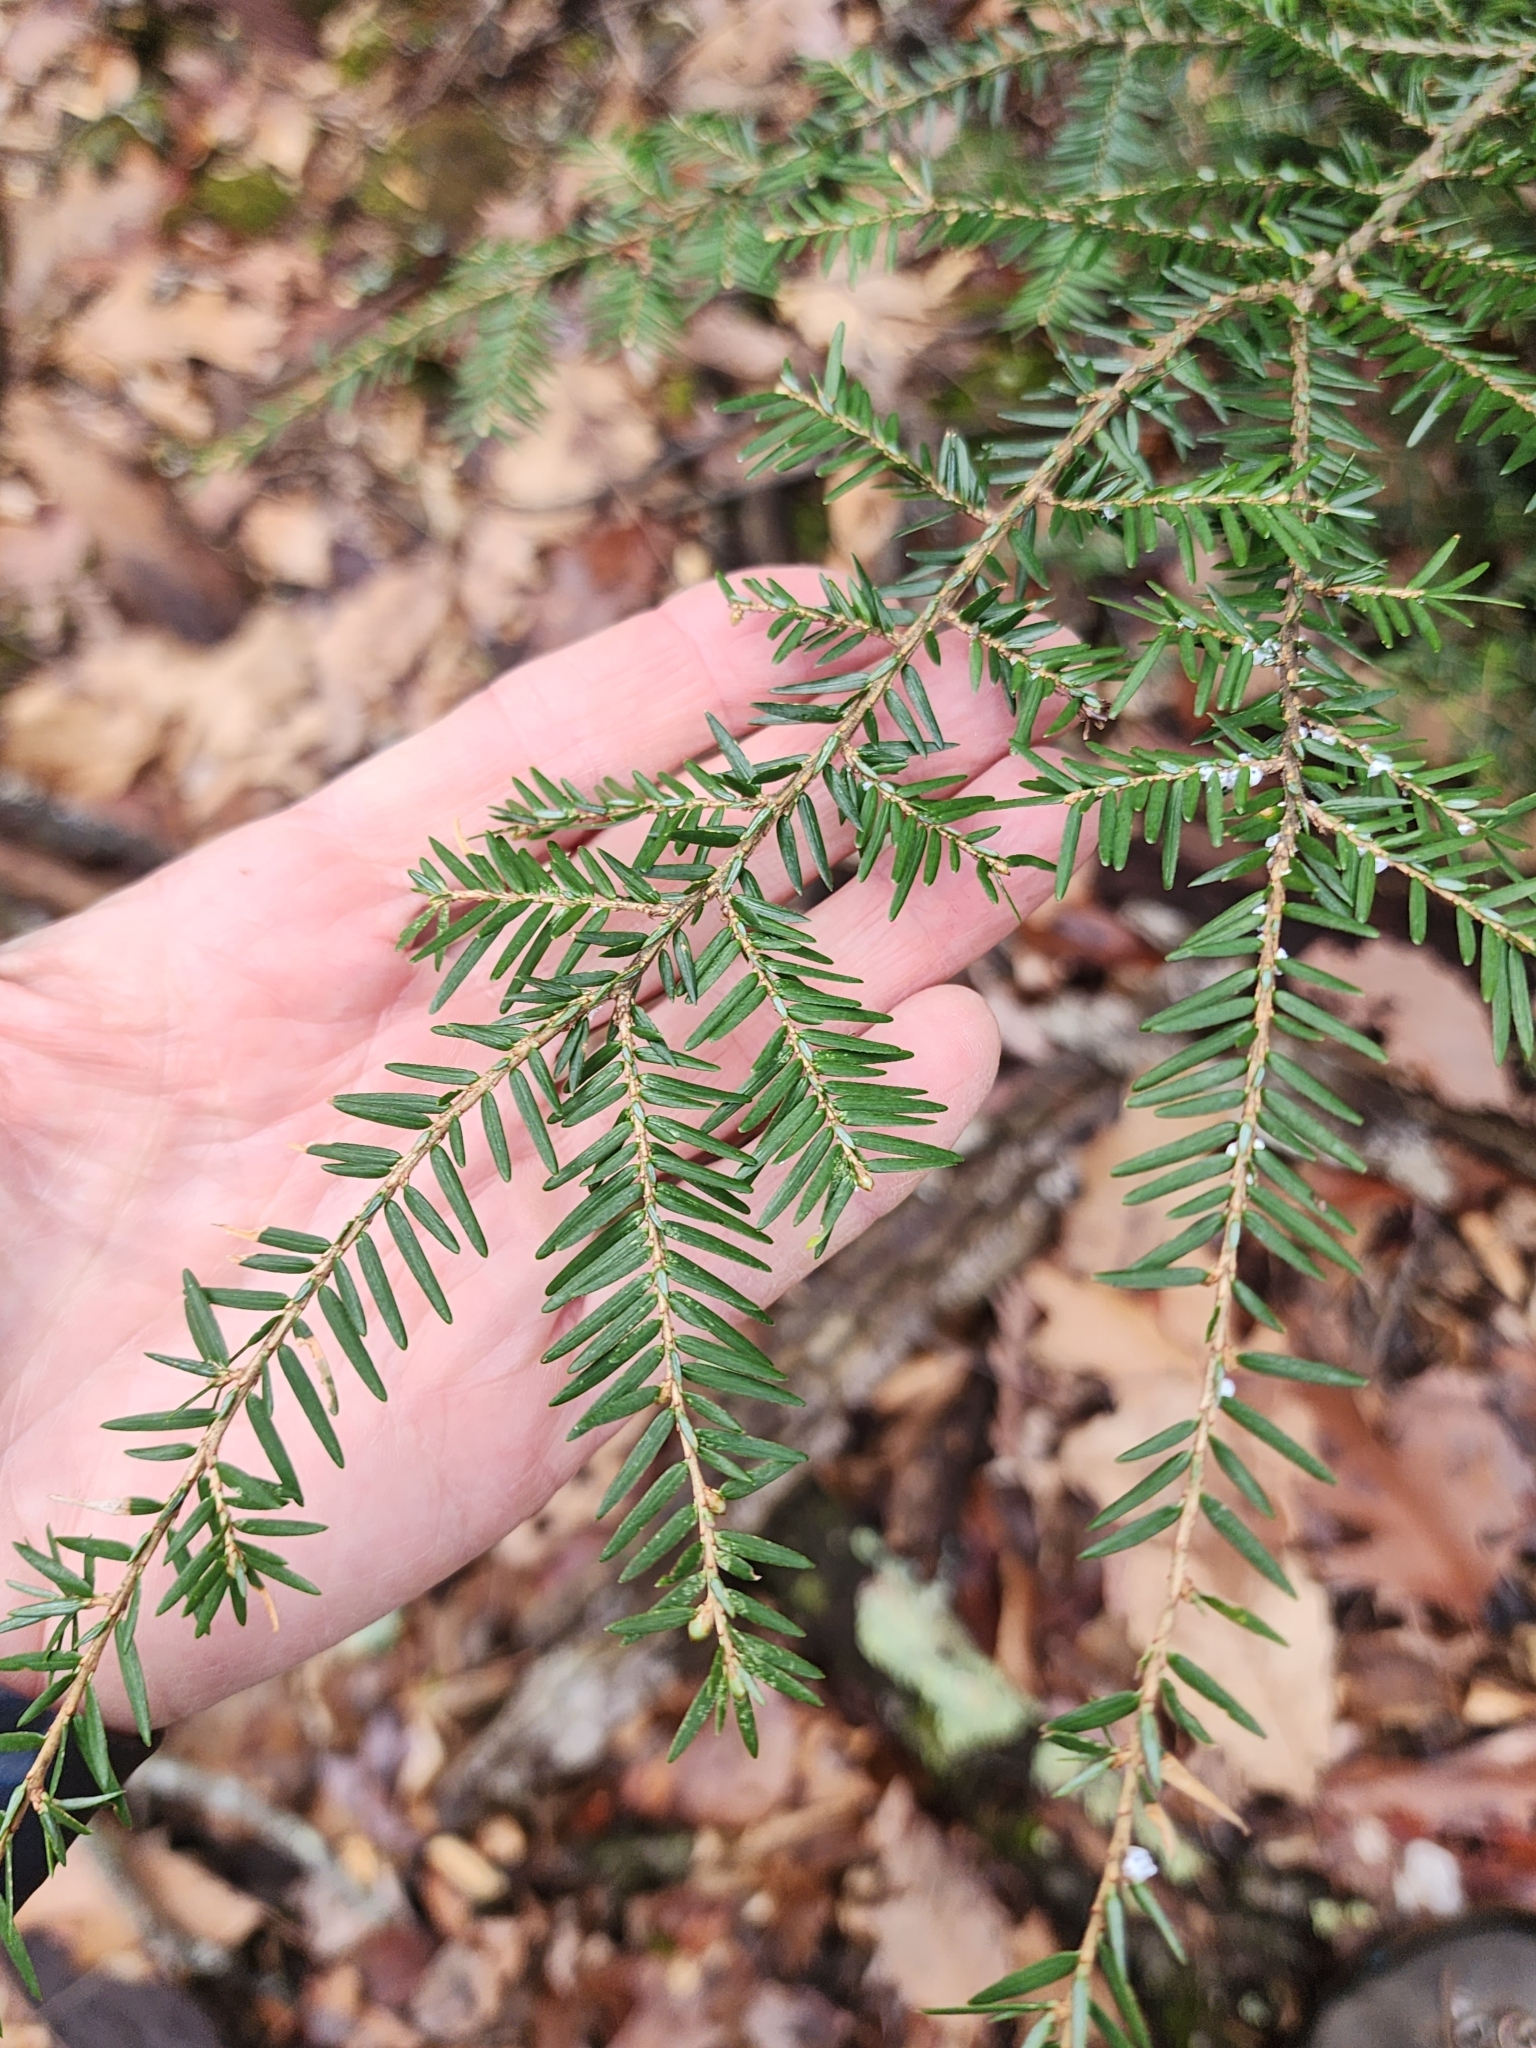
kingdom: Plantae
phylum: Tracheophyta
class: Pinopsida
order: Pinales
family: Pinaceae
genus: Tsuga
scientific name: Tsuga canadensis
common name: Eastern hemlock
